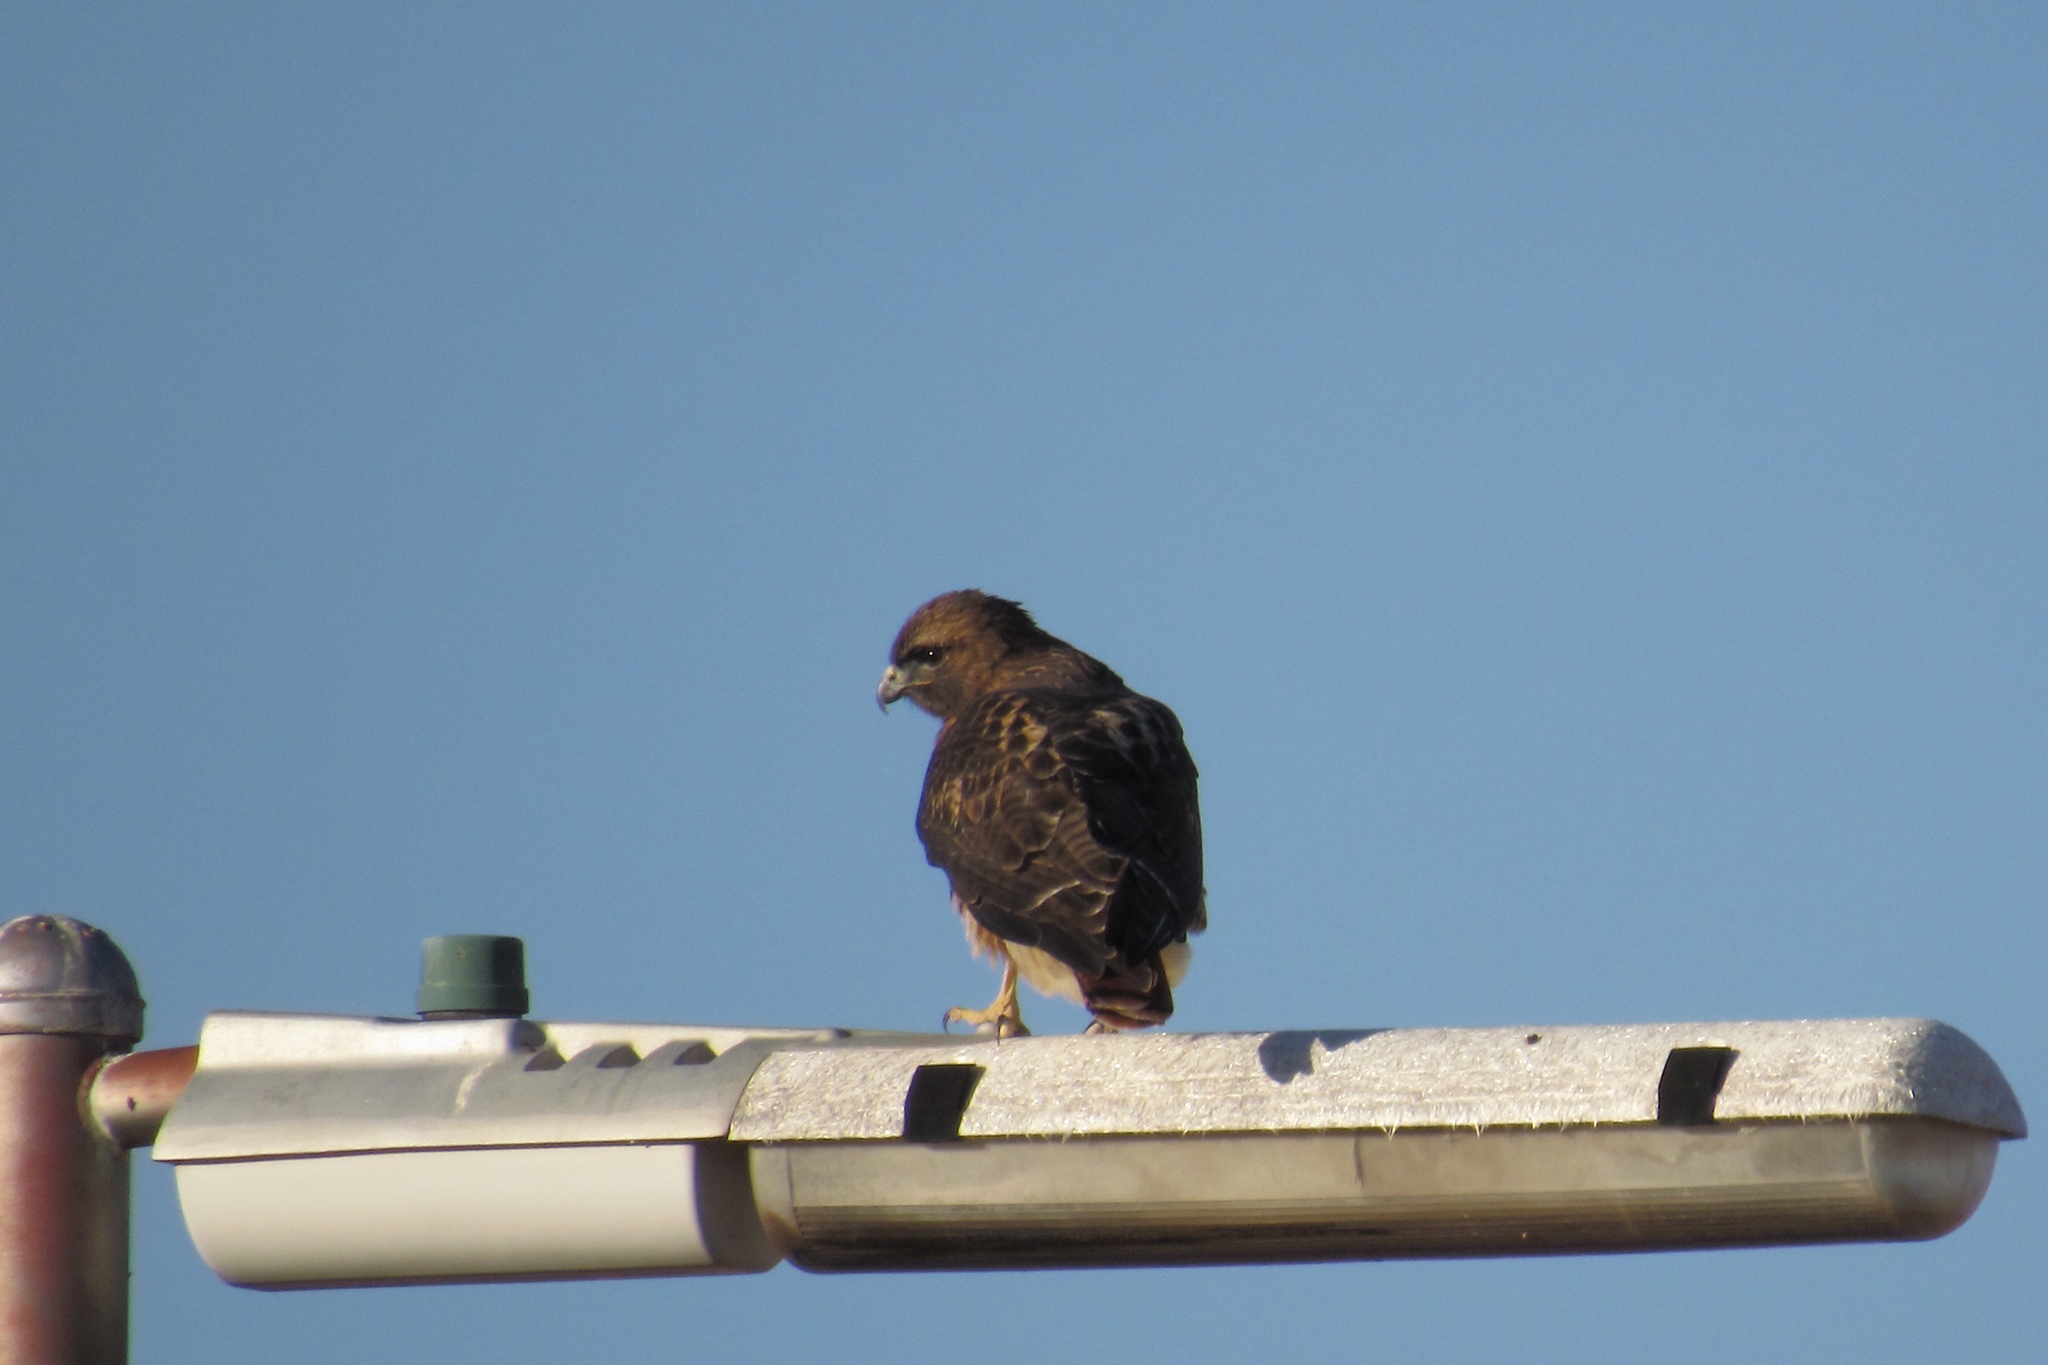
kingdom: Animalia
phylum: Chordata
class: Aves
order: Accipitriformes
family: Accipitridae
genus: Buteo
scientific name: Buteo jamaicensis
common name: Red-tailed hawk
